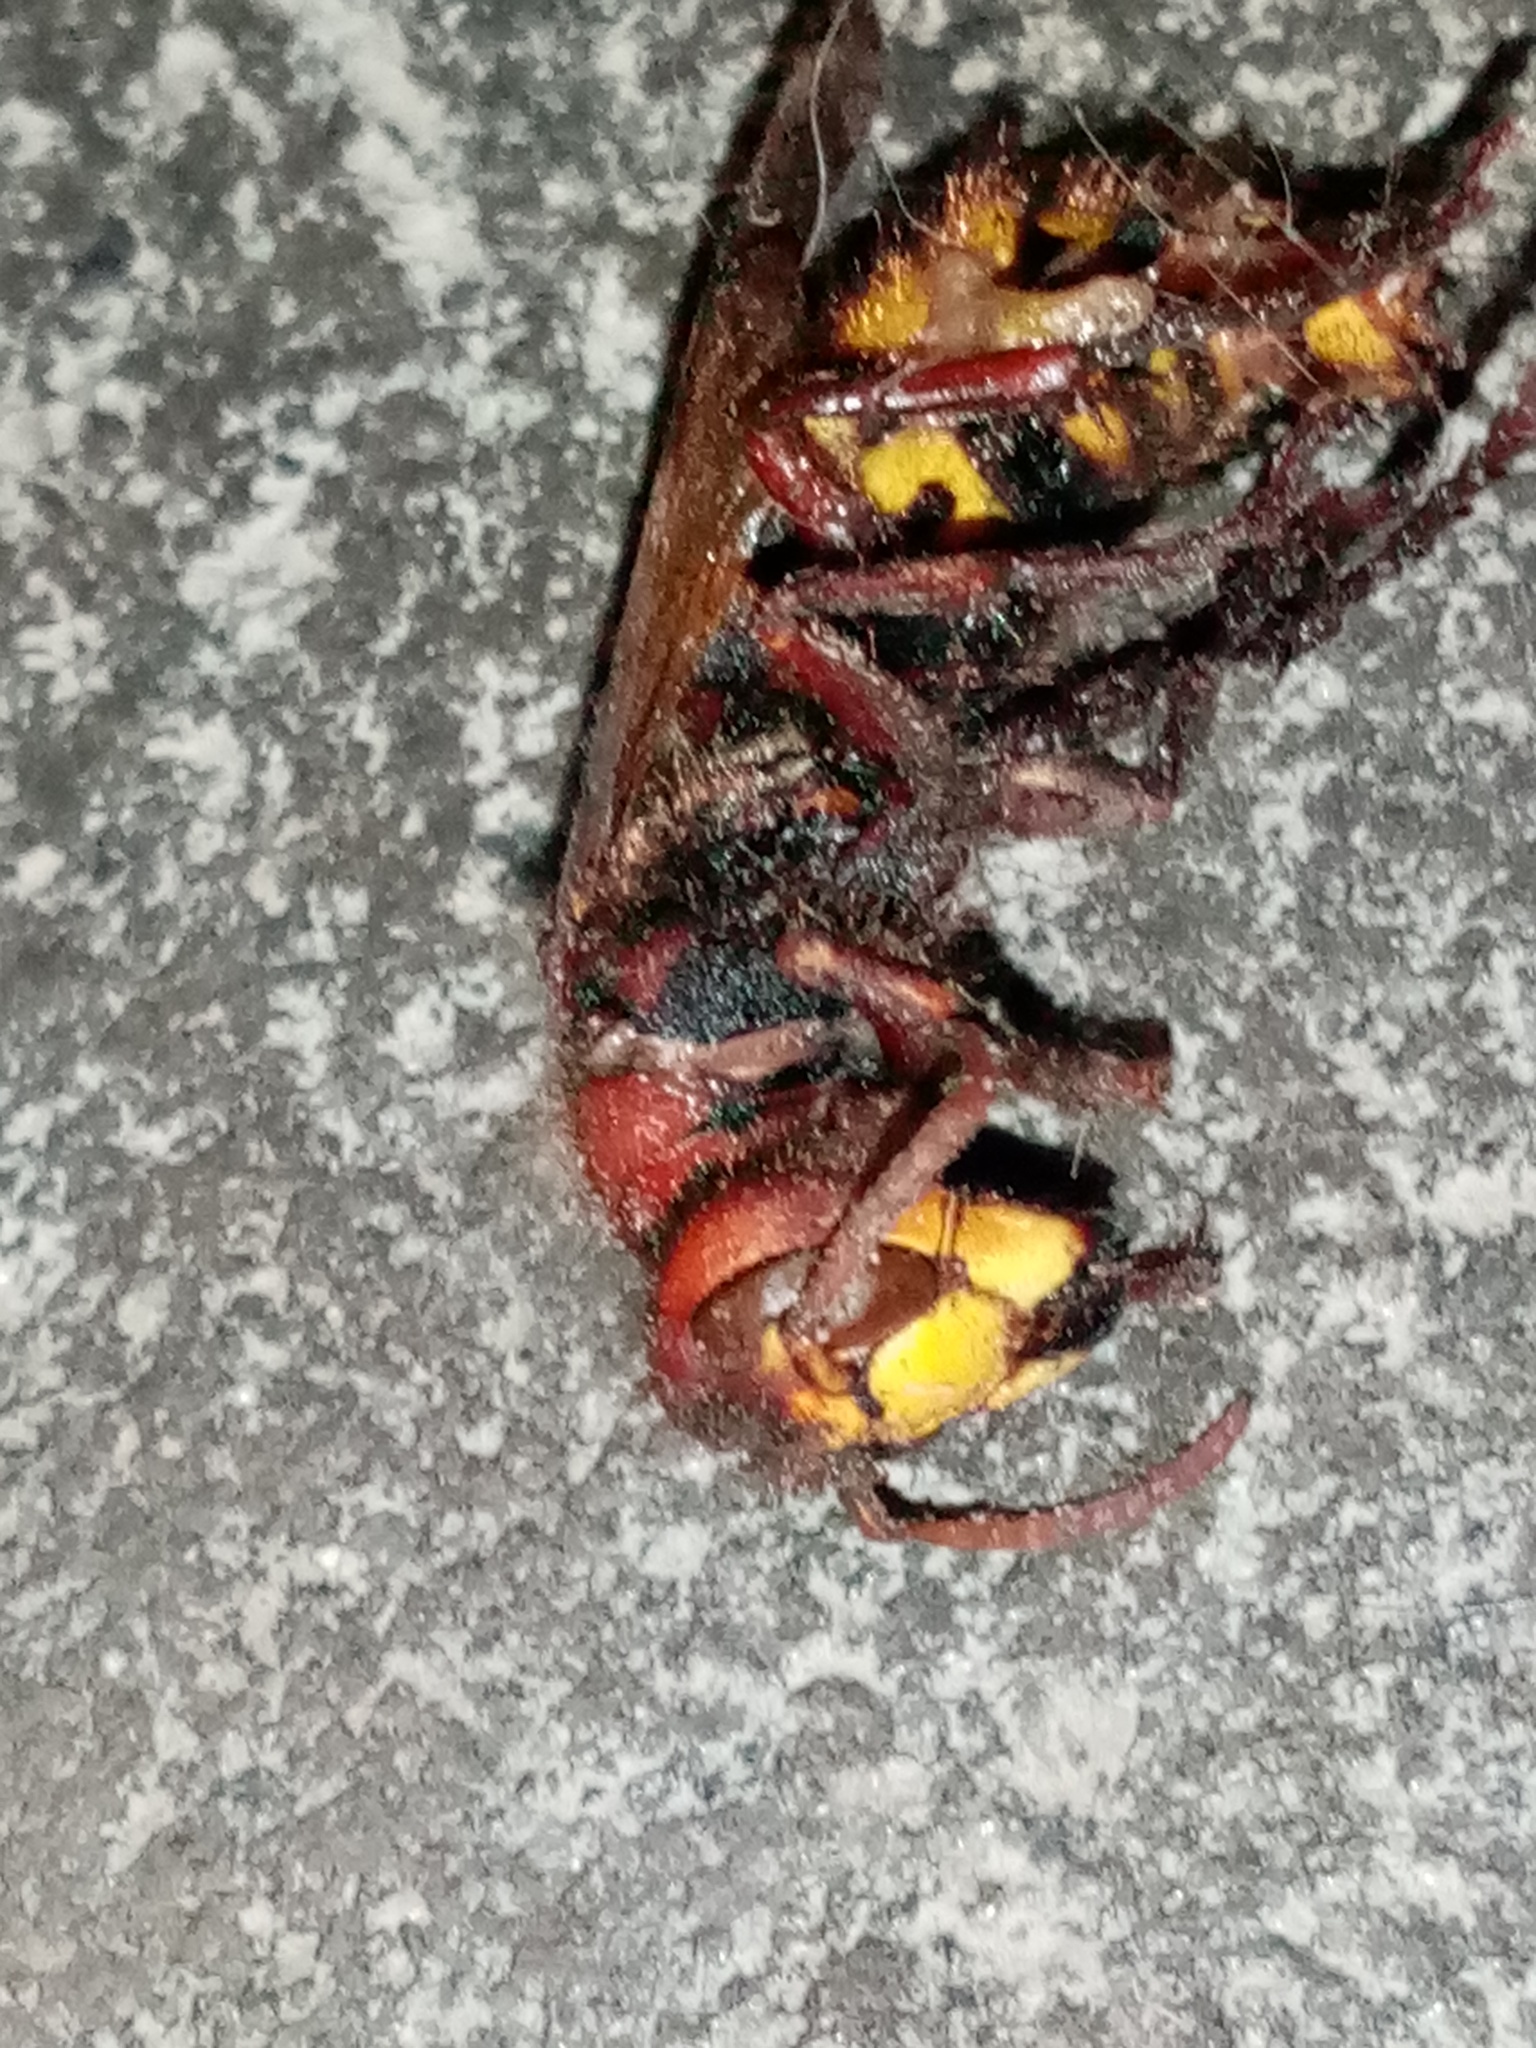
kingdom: Animalia
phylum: Arthropoda
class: Insecta
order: Hymenoptera
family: Vespidae
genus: Vespa
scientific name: Vespa crabro
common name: Hornet
